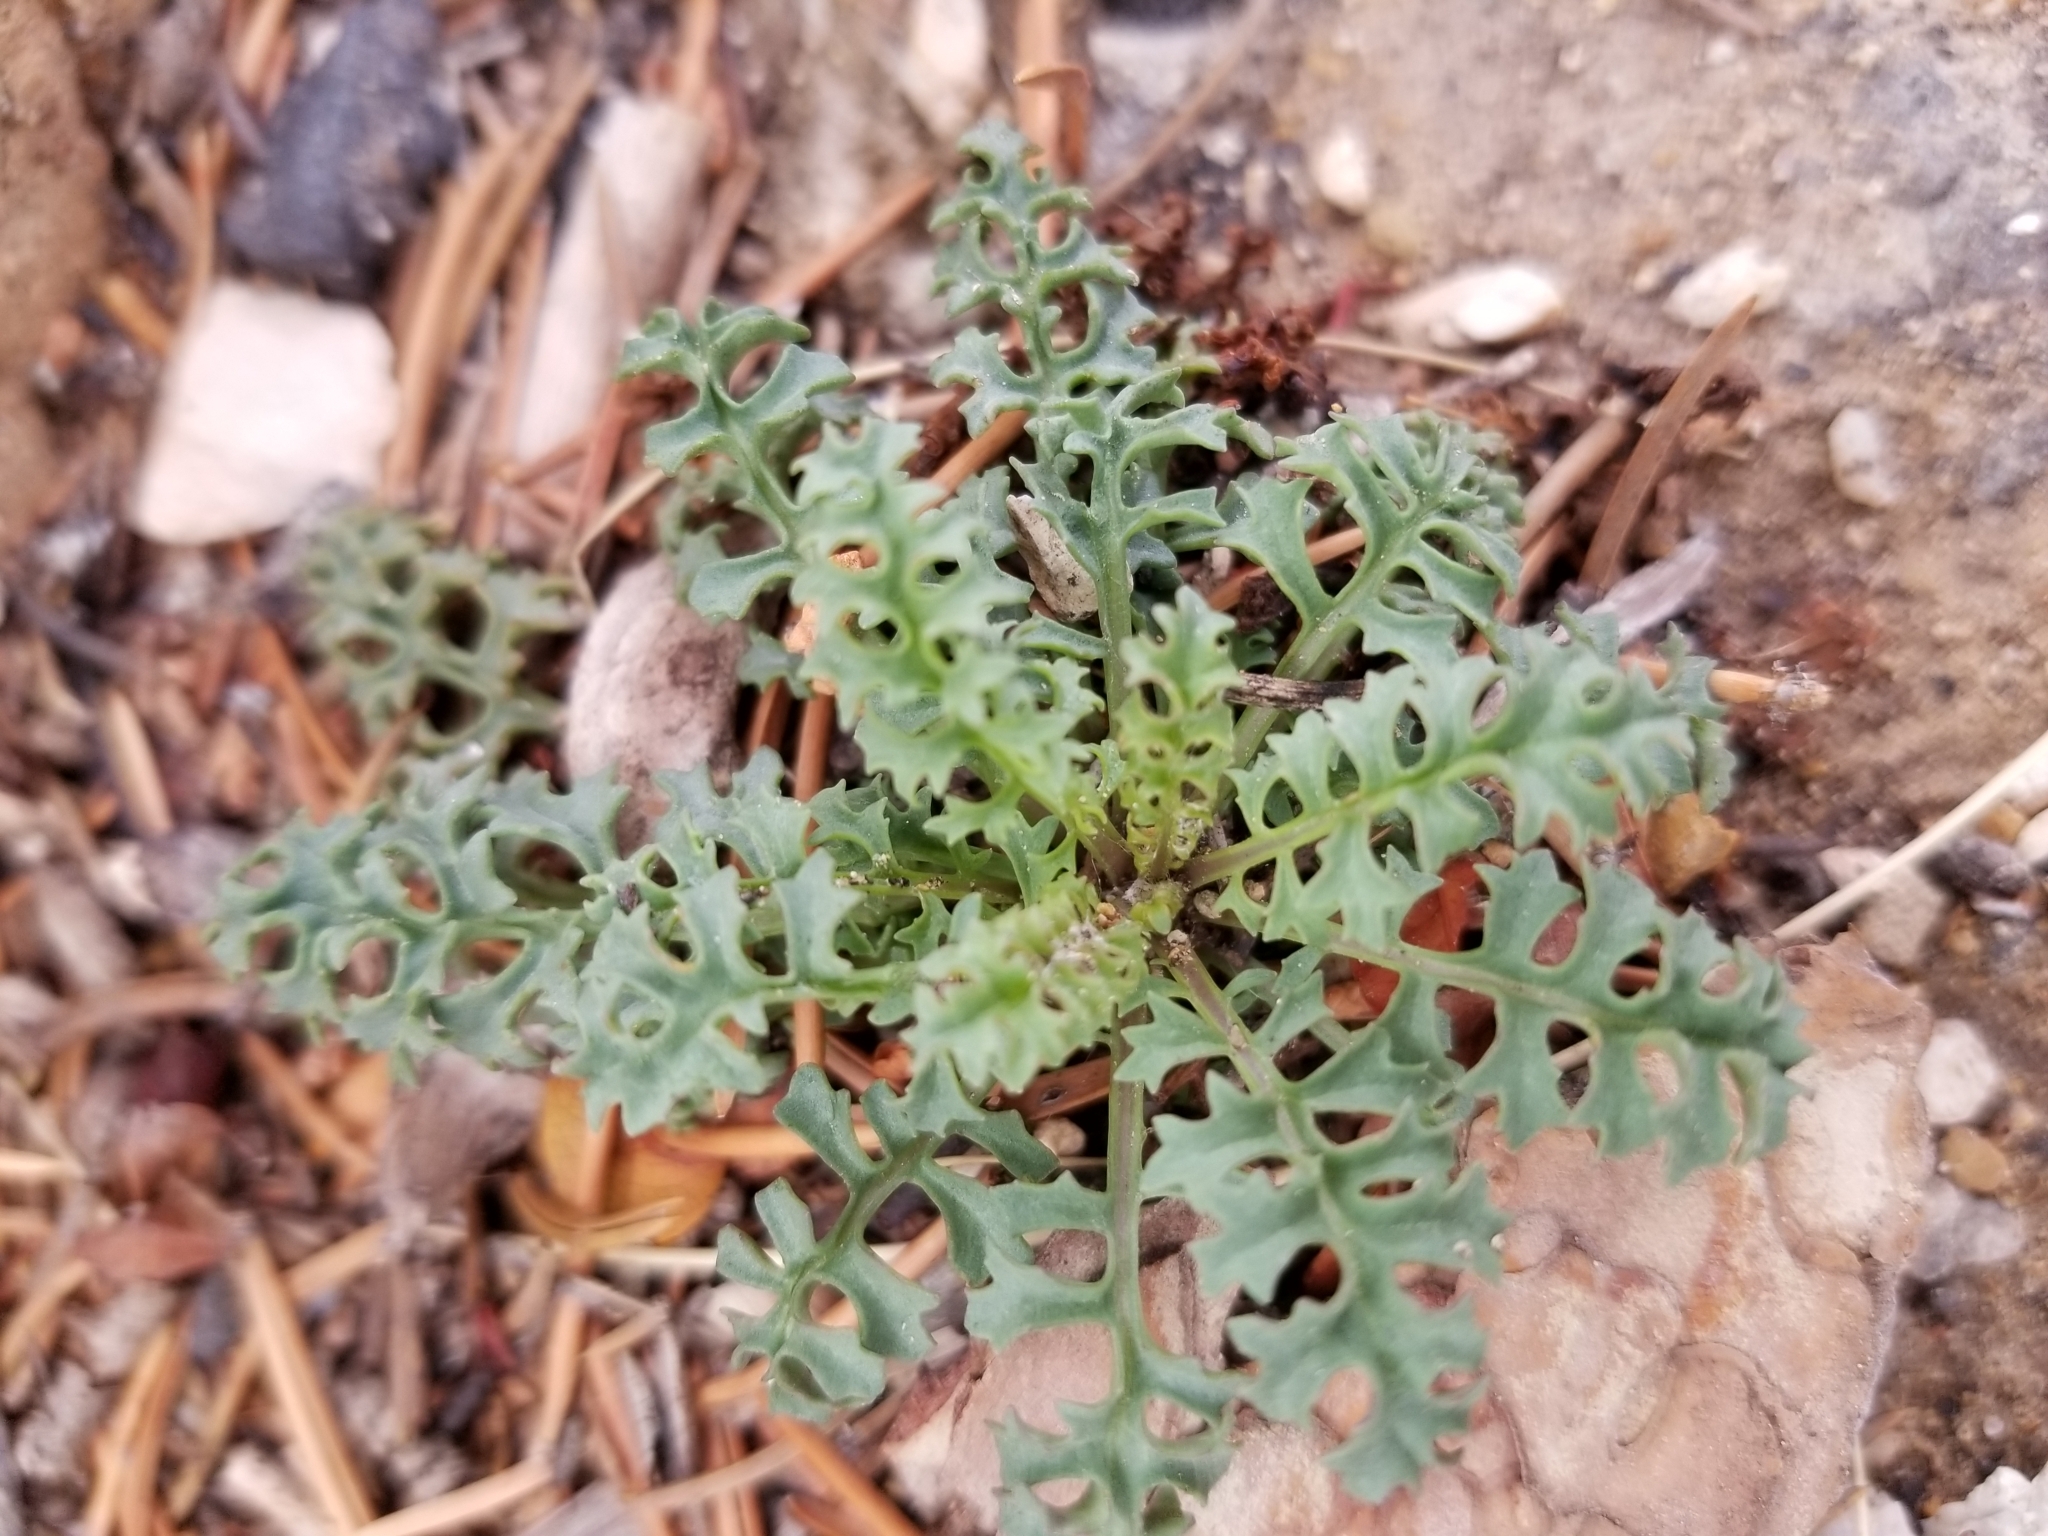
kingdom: Plantae
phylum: Tracheophyta
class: Magnoliopsida
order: Asterales
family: Asteraceae
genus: Packera
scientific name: Packera multilobata
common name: Lobe-leaf groundsel
